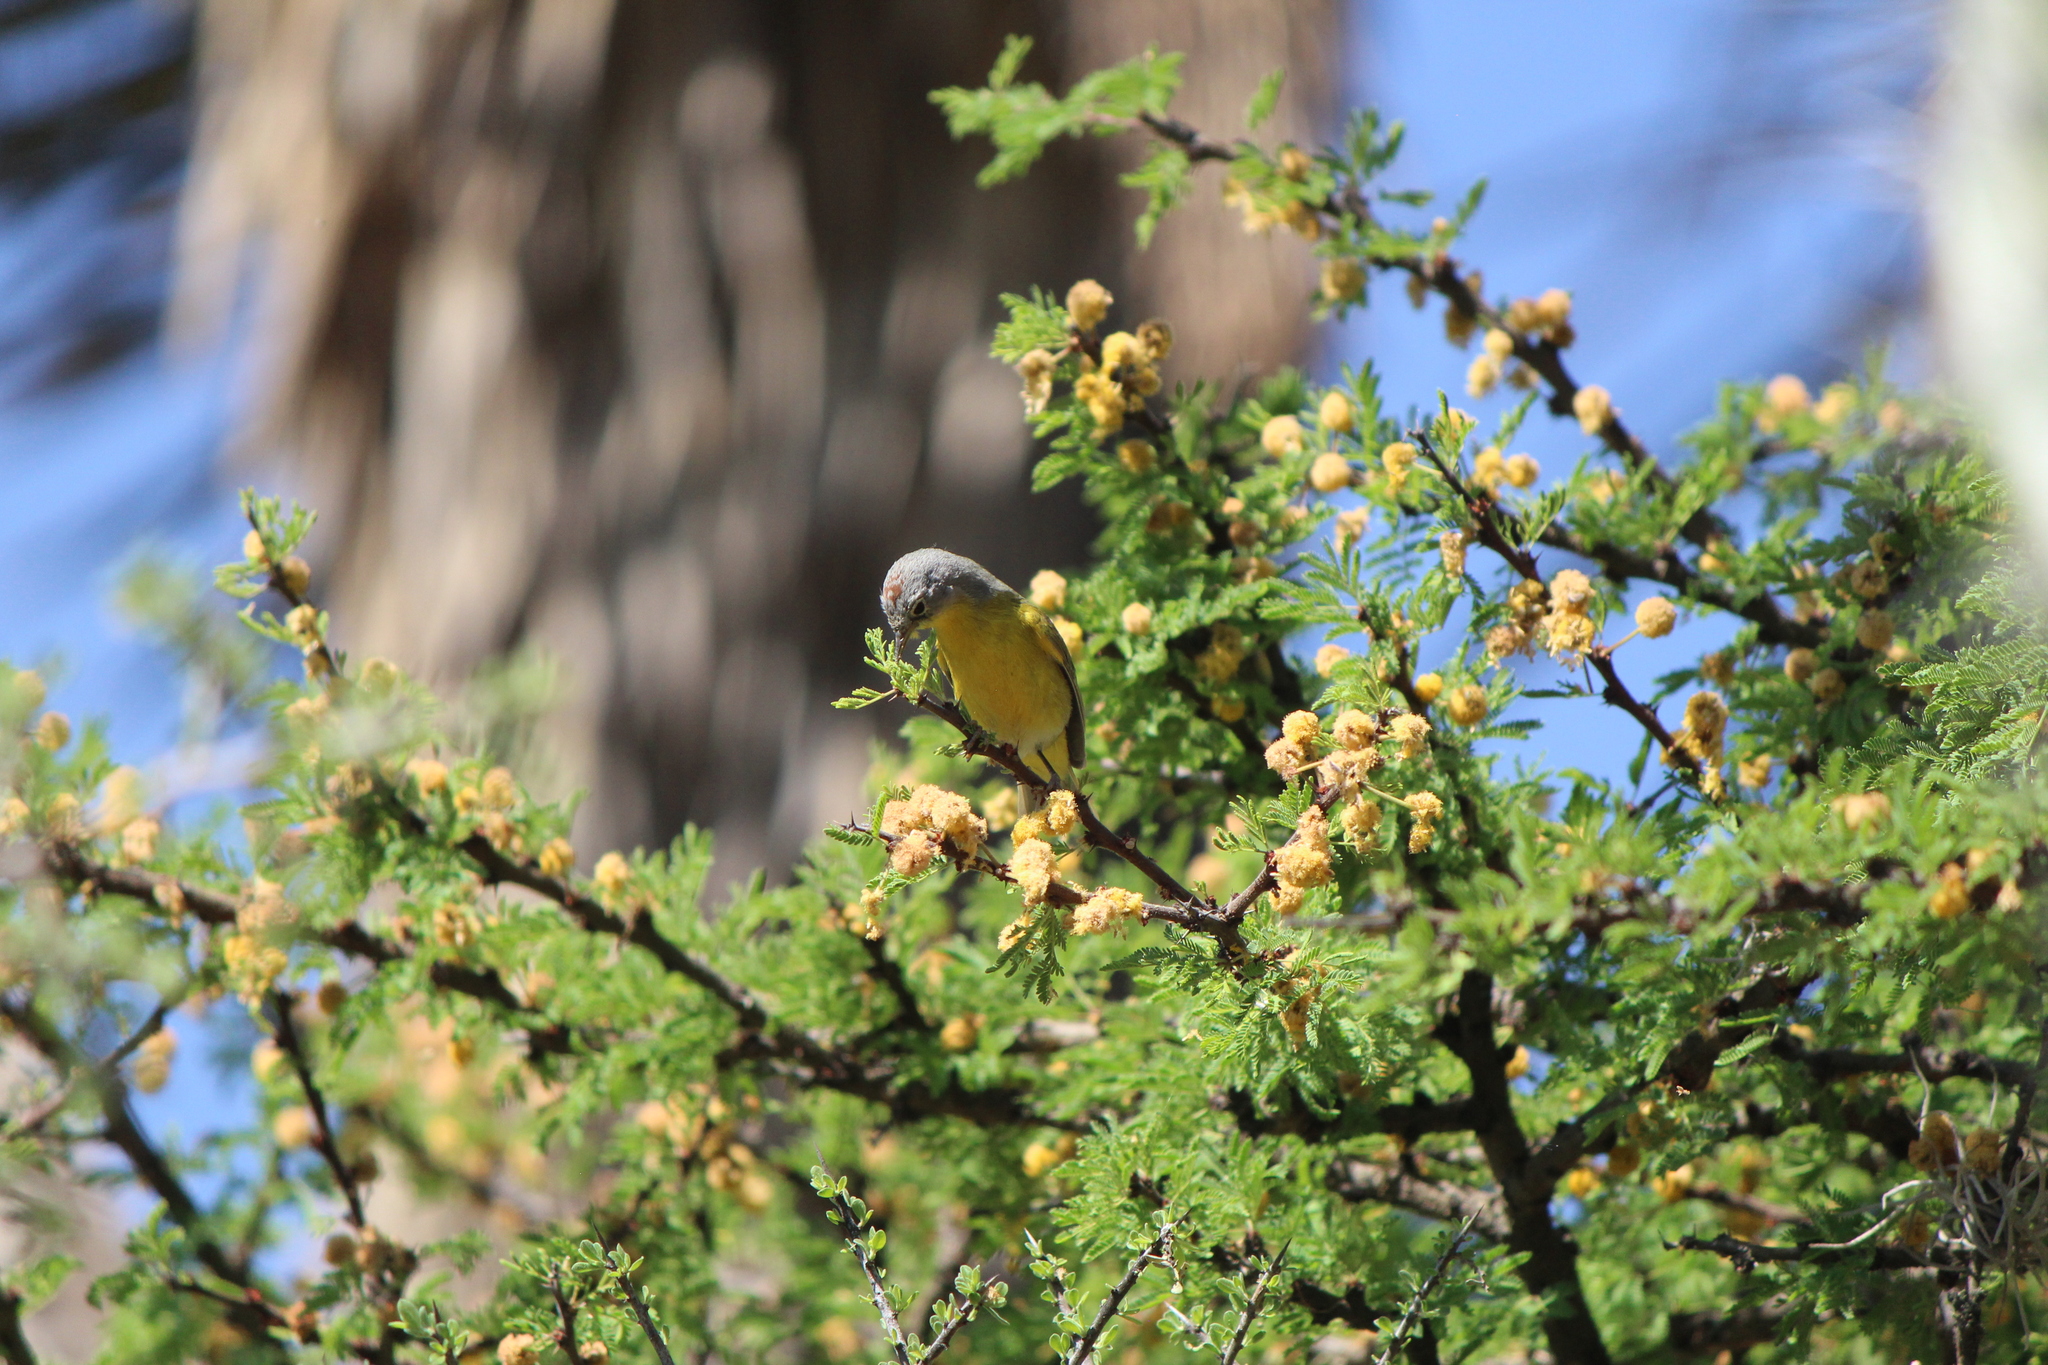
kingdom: Animalia
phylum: Chordata
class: Aves
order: Passeriformes
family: Parulidae
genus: Leiothlypis
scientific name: Leiothlypis ruficapilla
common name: Nashville warbler
